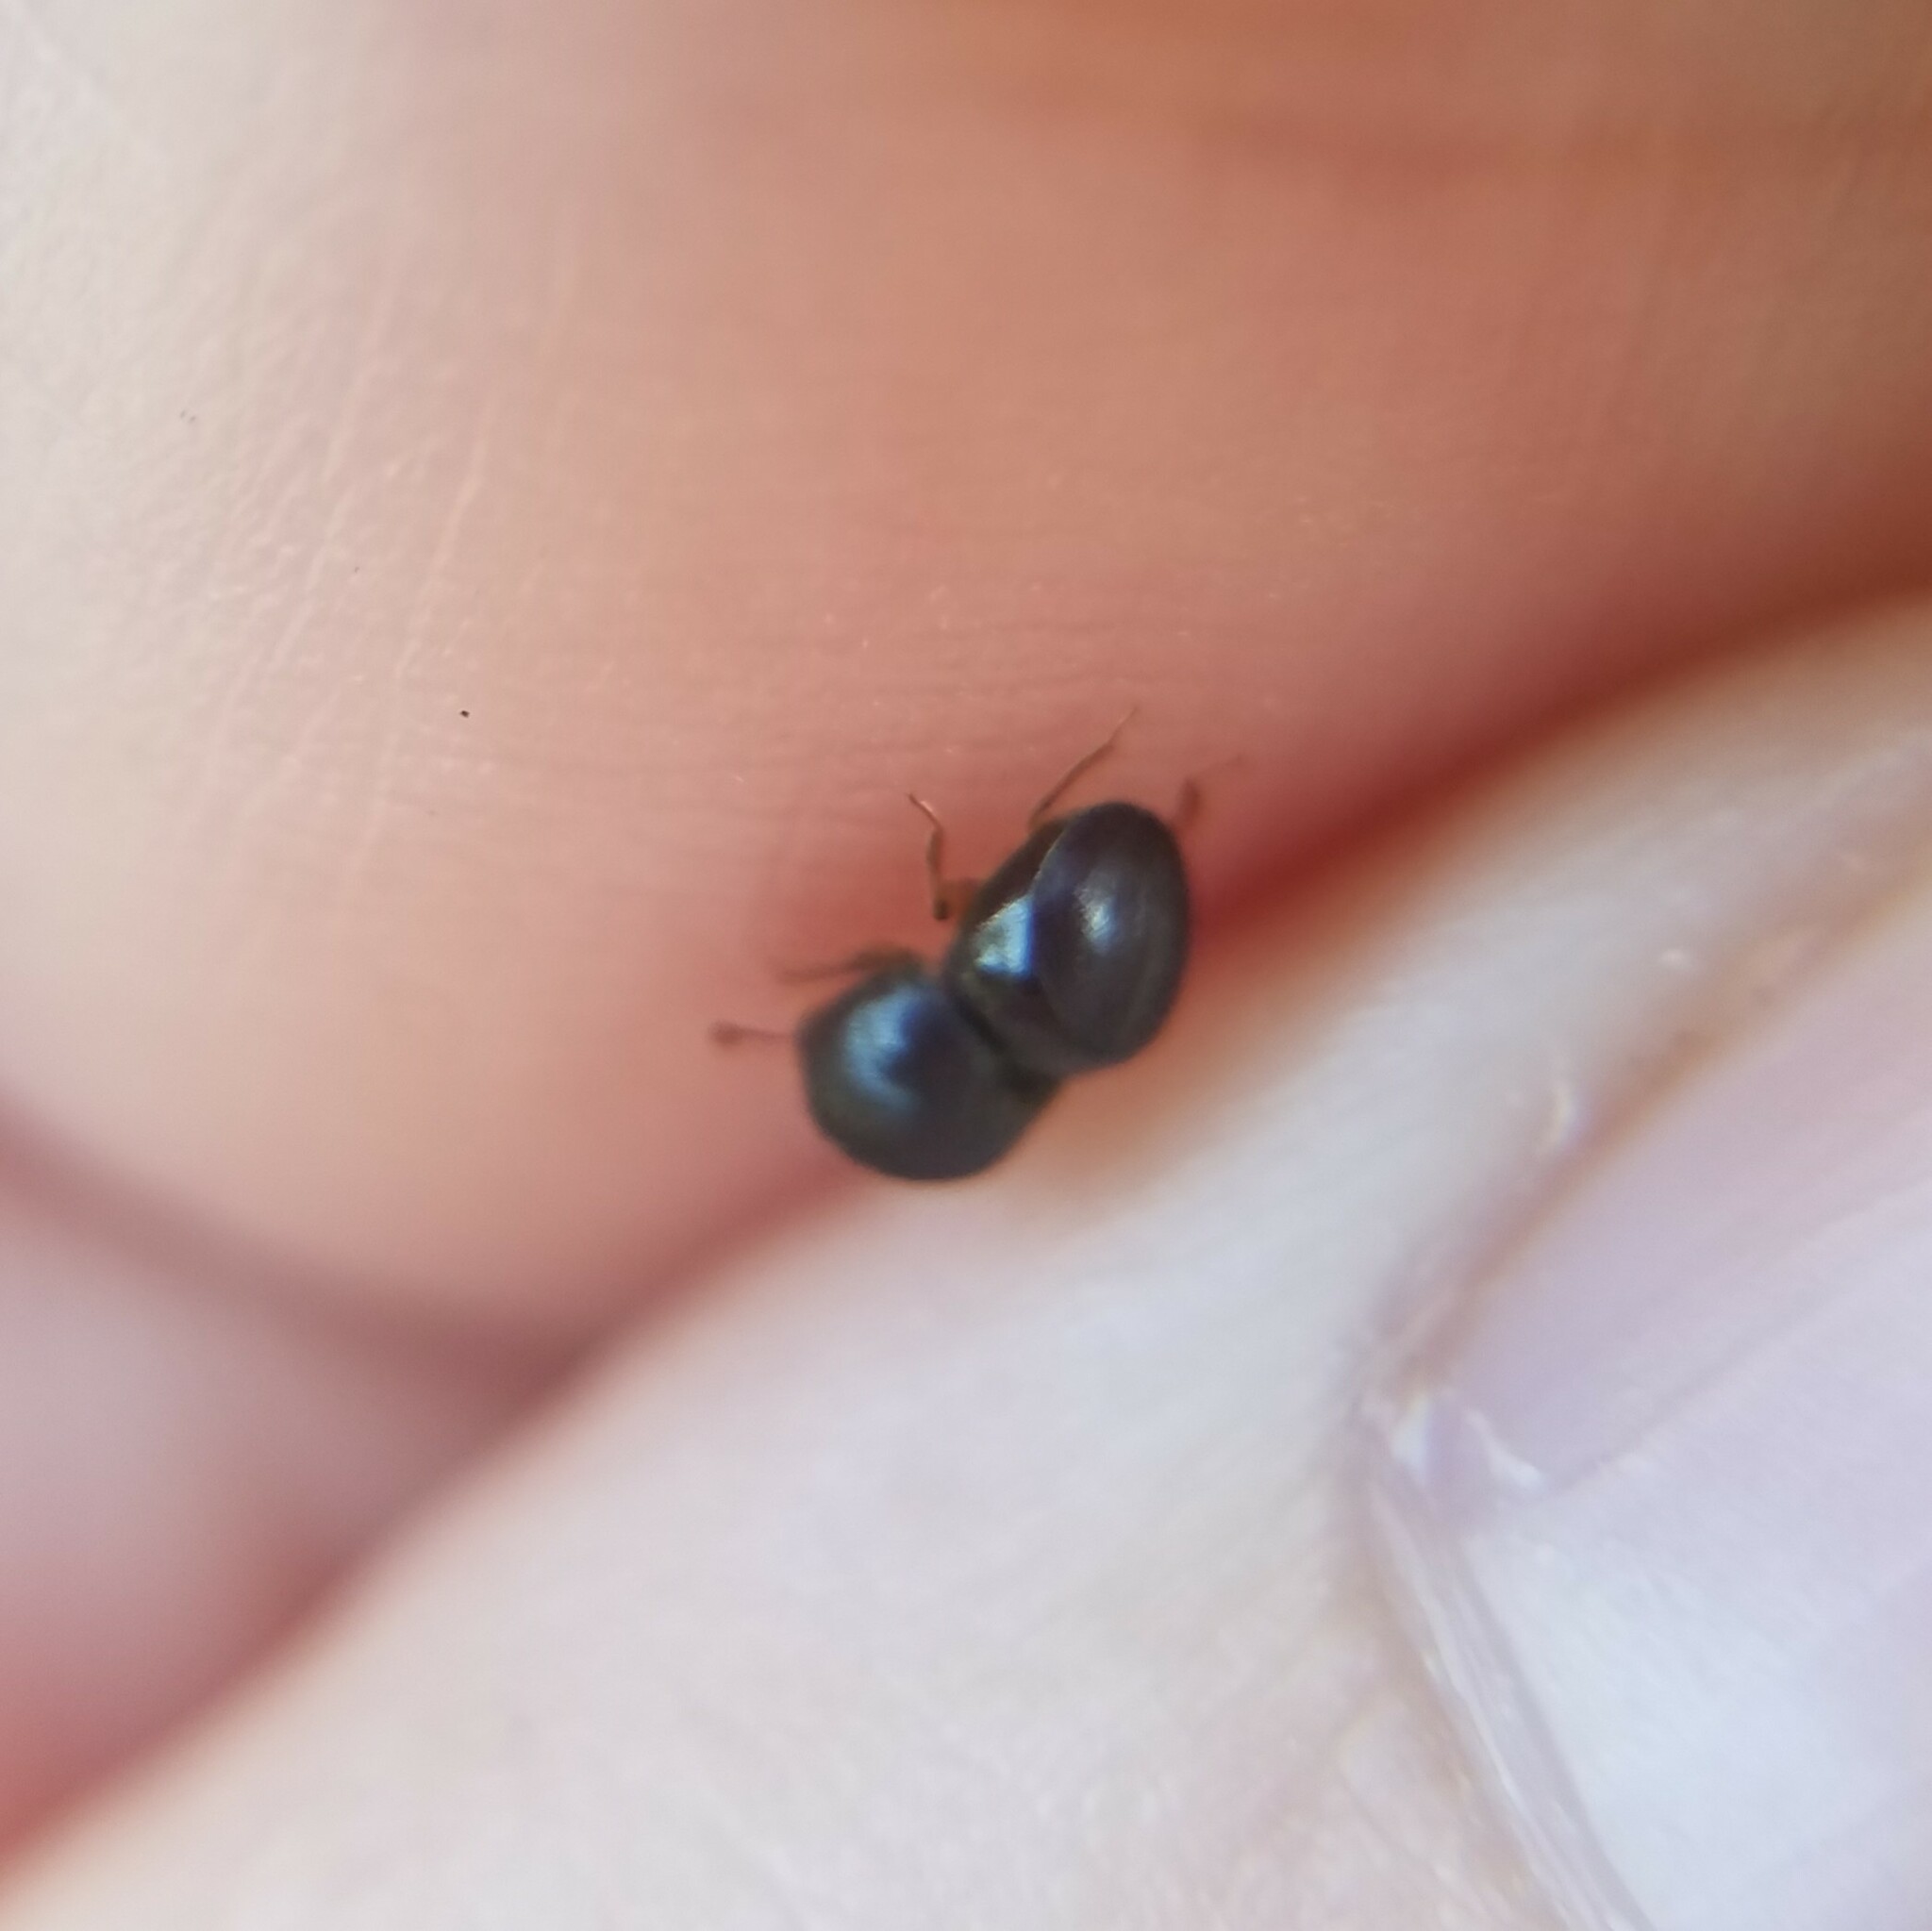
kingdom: Animalia
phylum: Arthropoda
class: Insecta
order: Coleoptera
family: Curculionidae
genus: Cnestus
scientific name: Cnestus mutilatus
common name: Camphor shot borer
